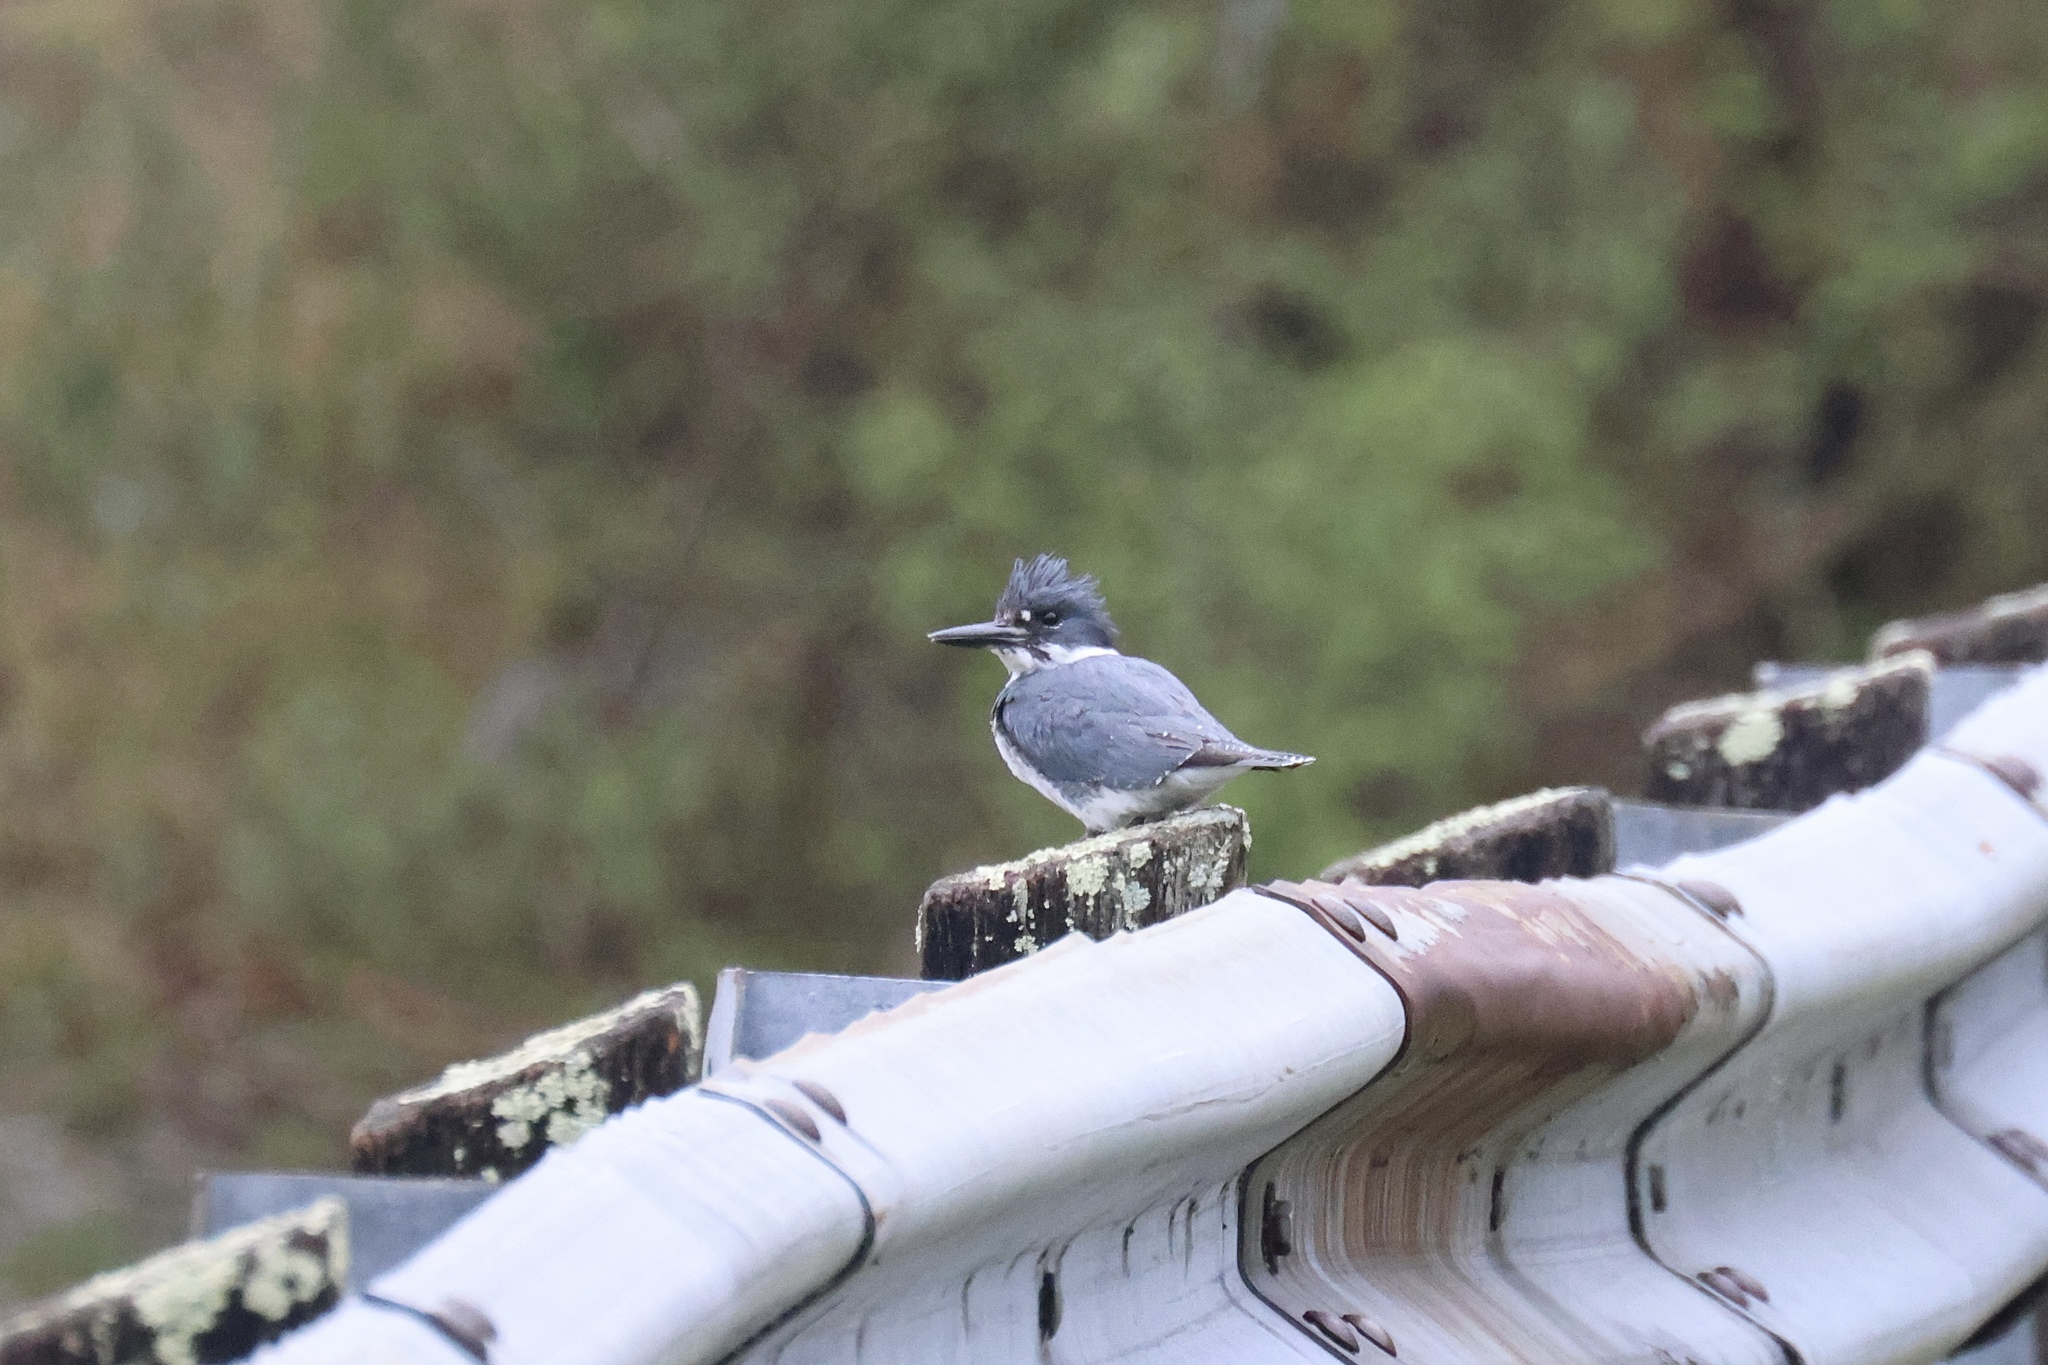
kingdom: Animalia
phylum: Chordata
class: Aves
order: Coraciiformes
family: Alcedinidae
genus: Megaceryle
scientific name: Megaceryle alcyon
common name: Belted kingfisher
